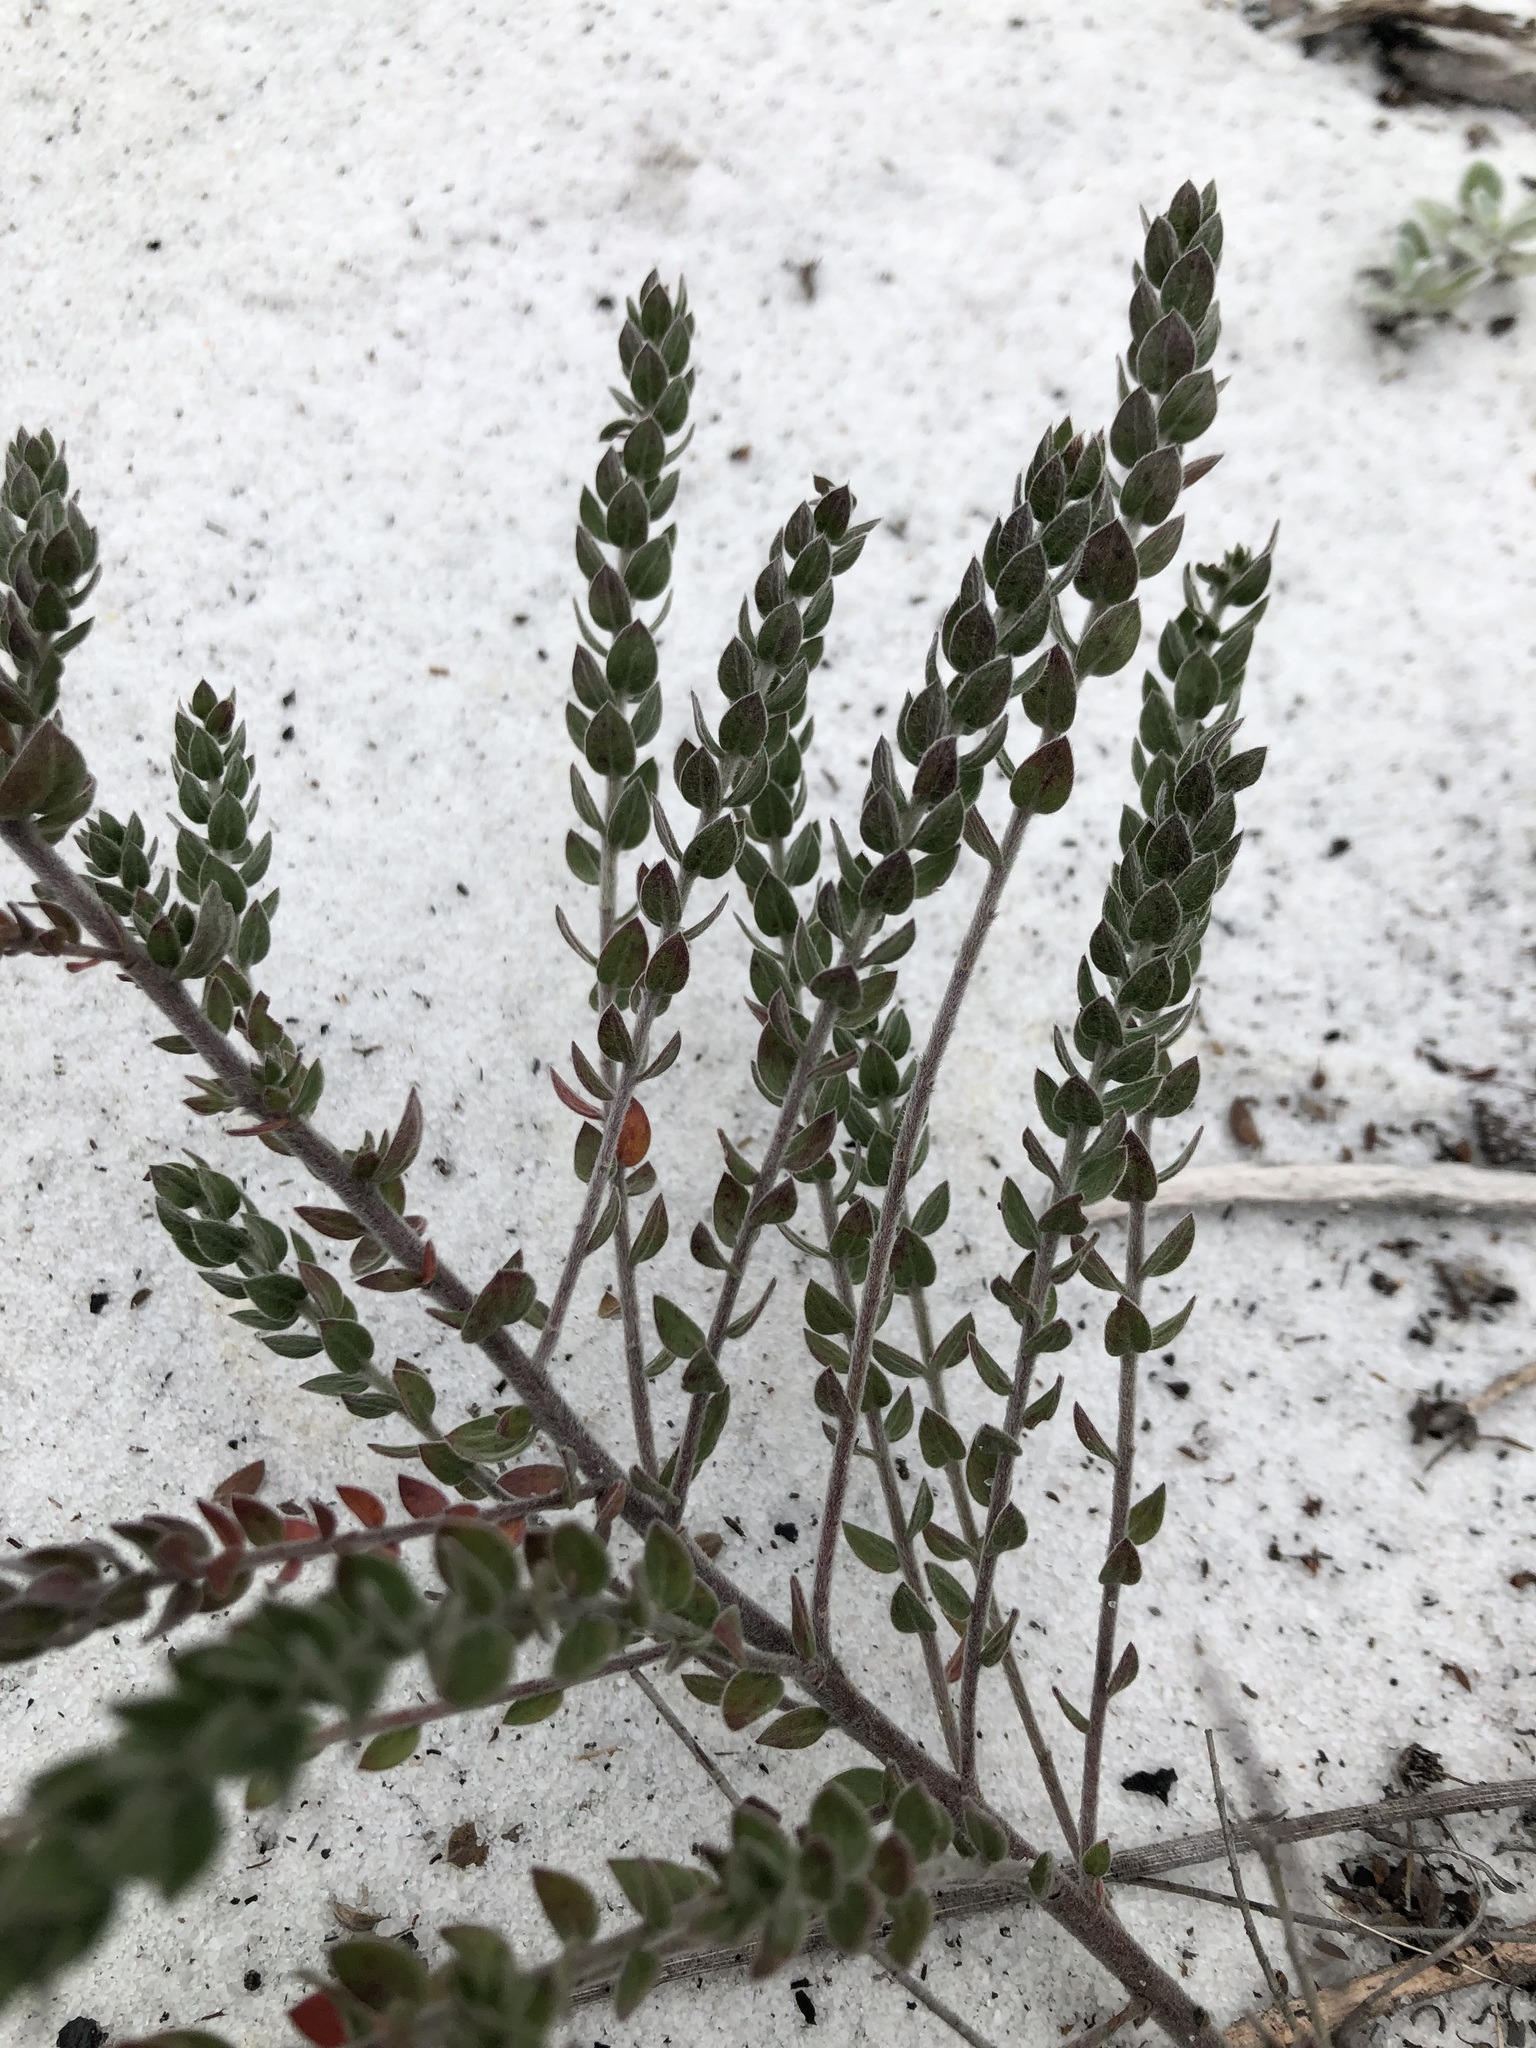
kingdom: Plantae
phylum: Tracheophyta
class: Magnoliopsida
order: Malvales
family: Cistaceae
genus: Lechea
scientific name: Lechea cernua
